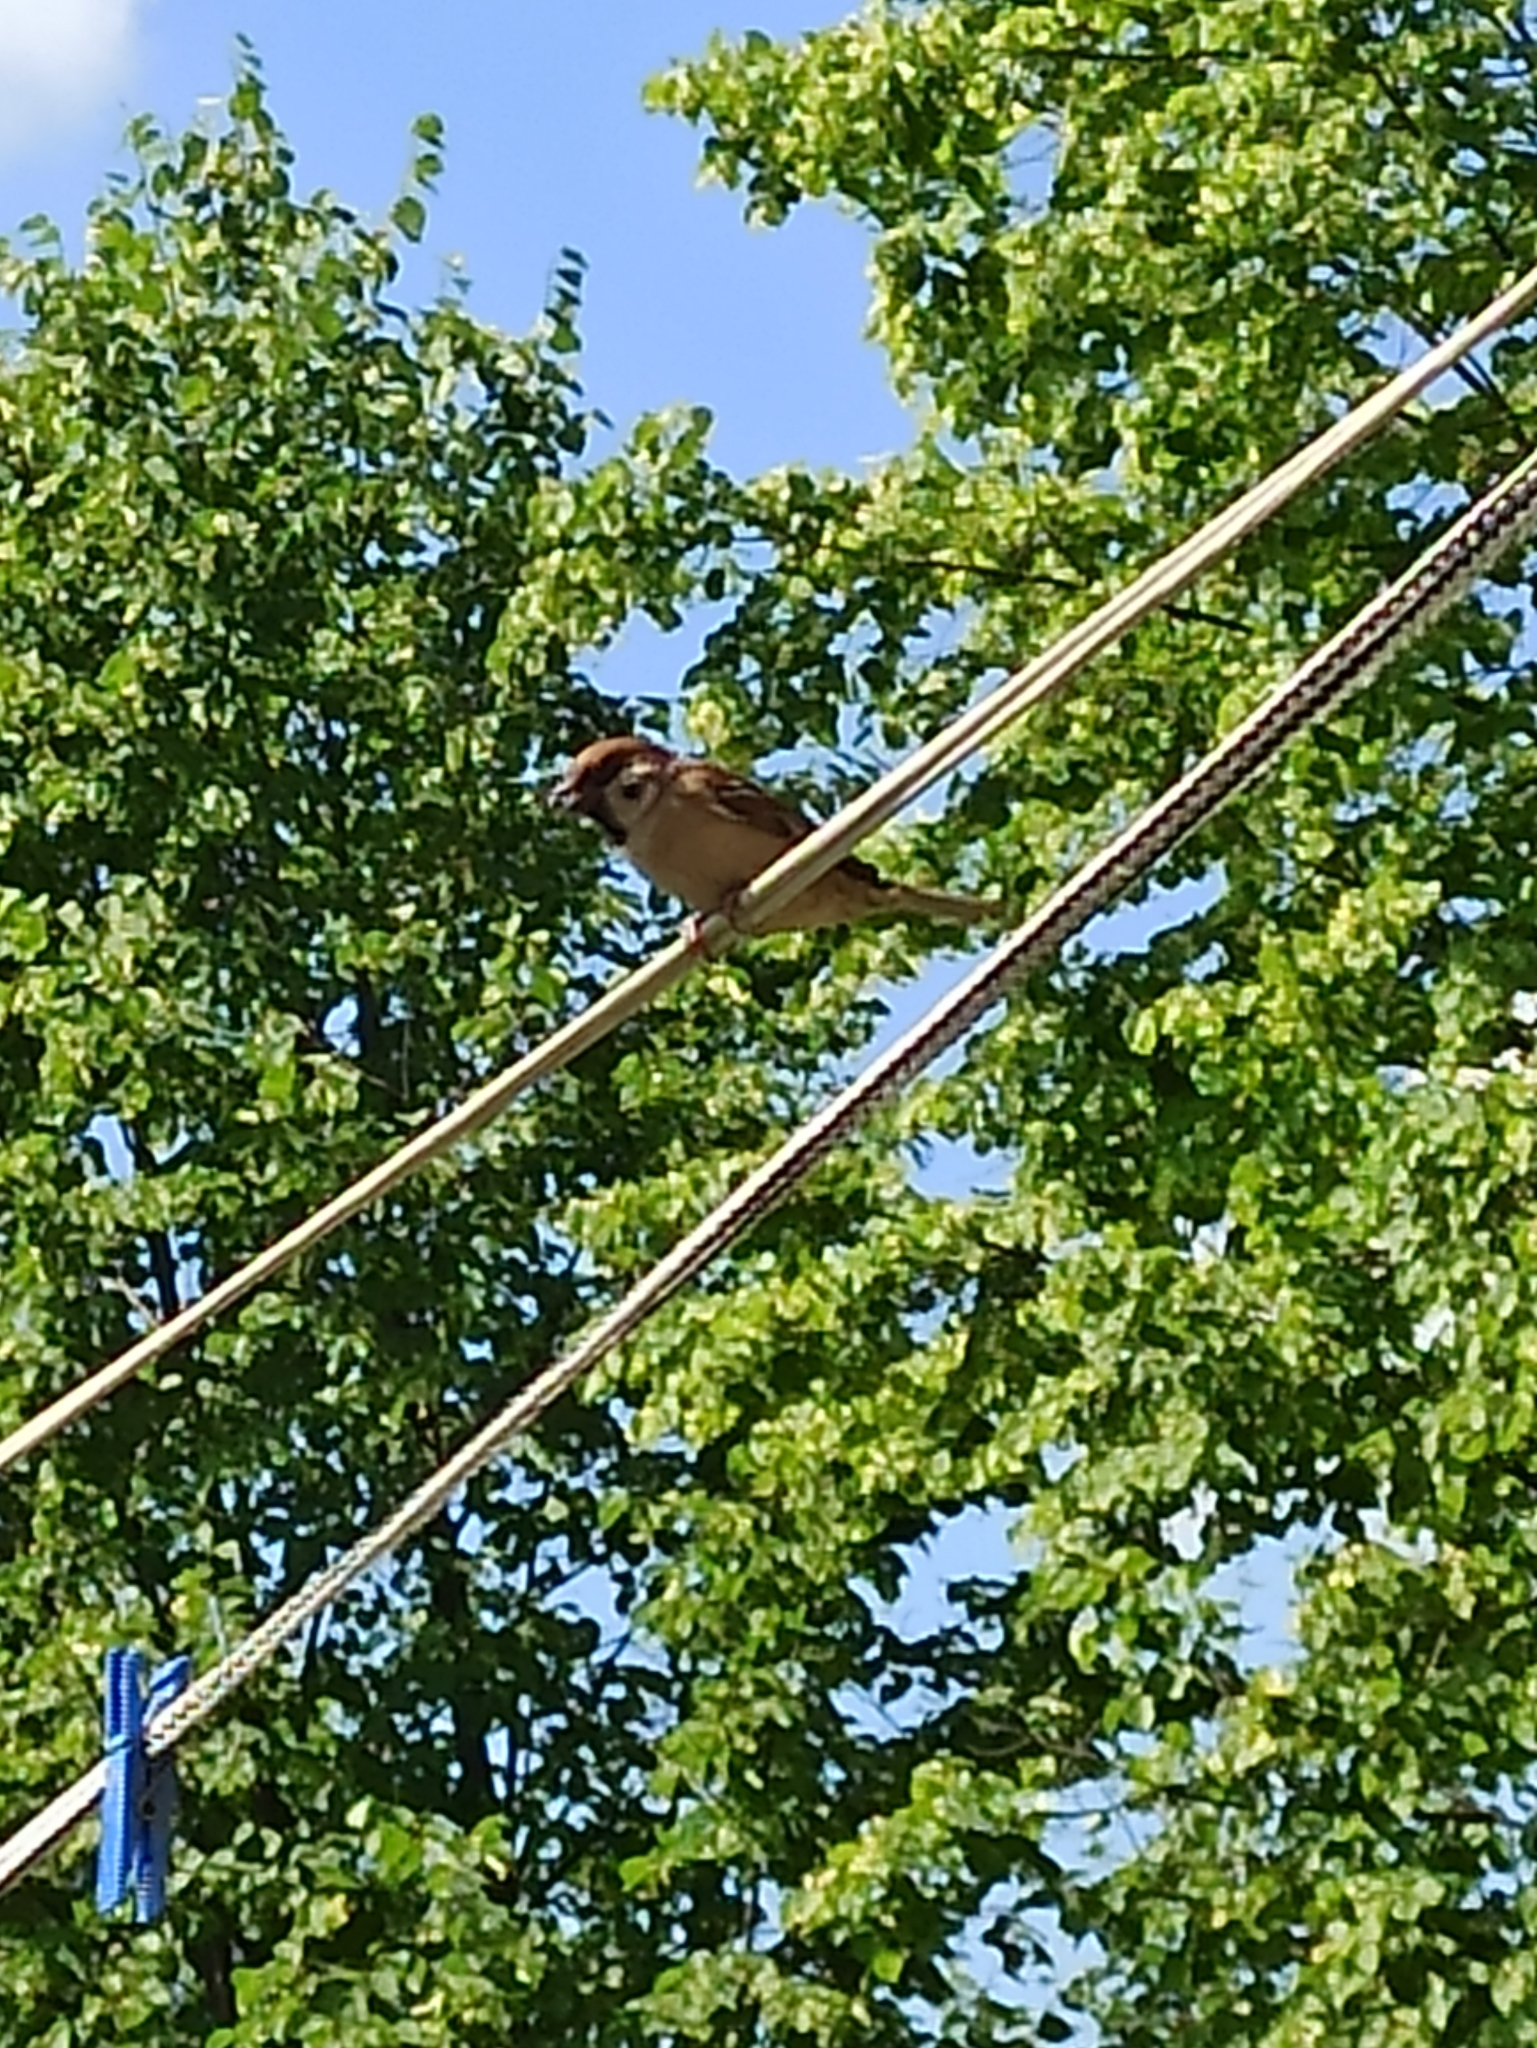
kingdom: Animalia
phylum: Chordata
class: Aves
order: Passeriformes
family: Passeridae
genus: Passer
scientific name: Passer montanus
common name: Eurasian tree sparrow
